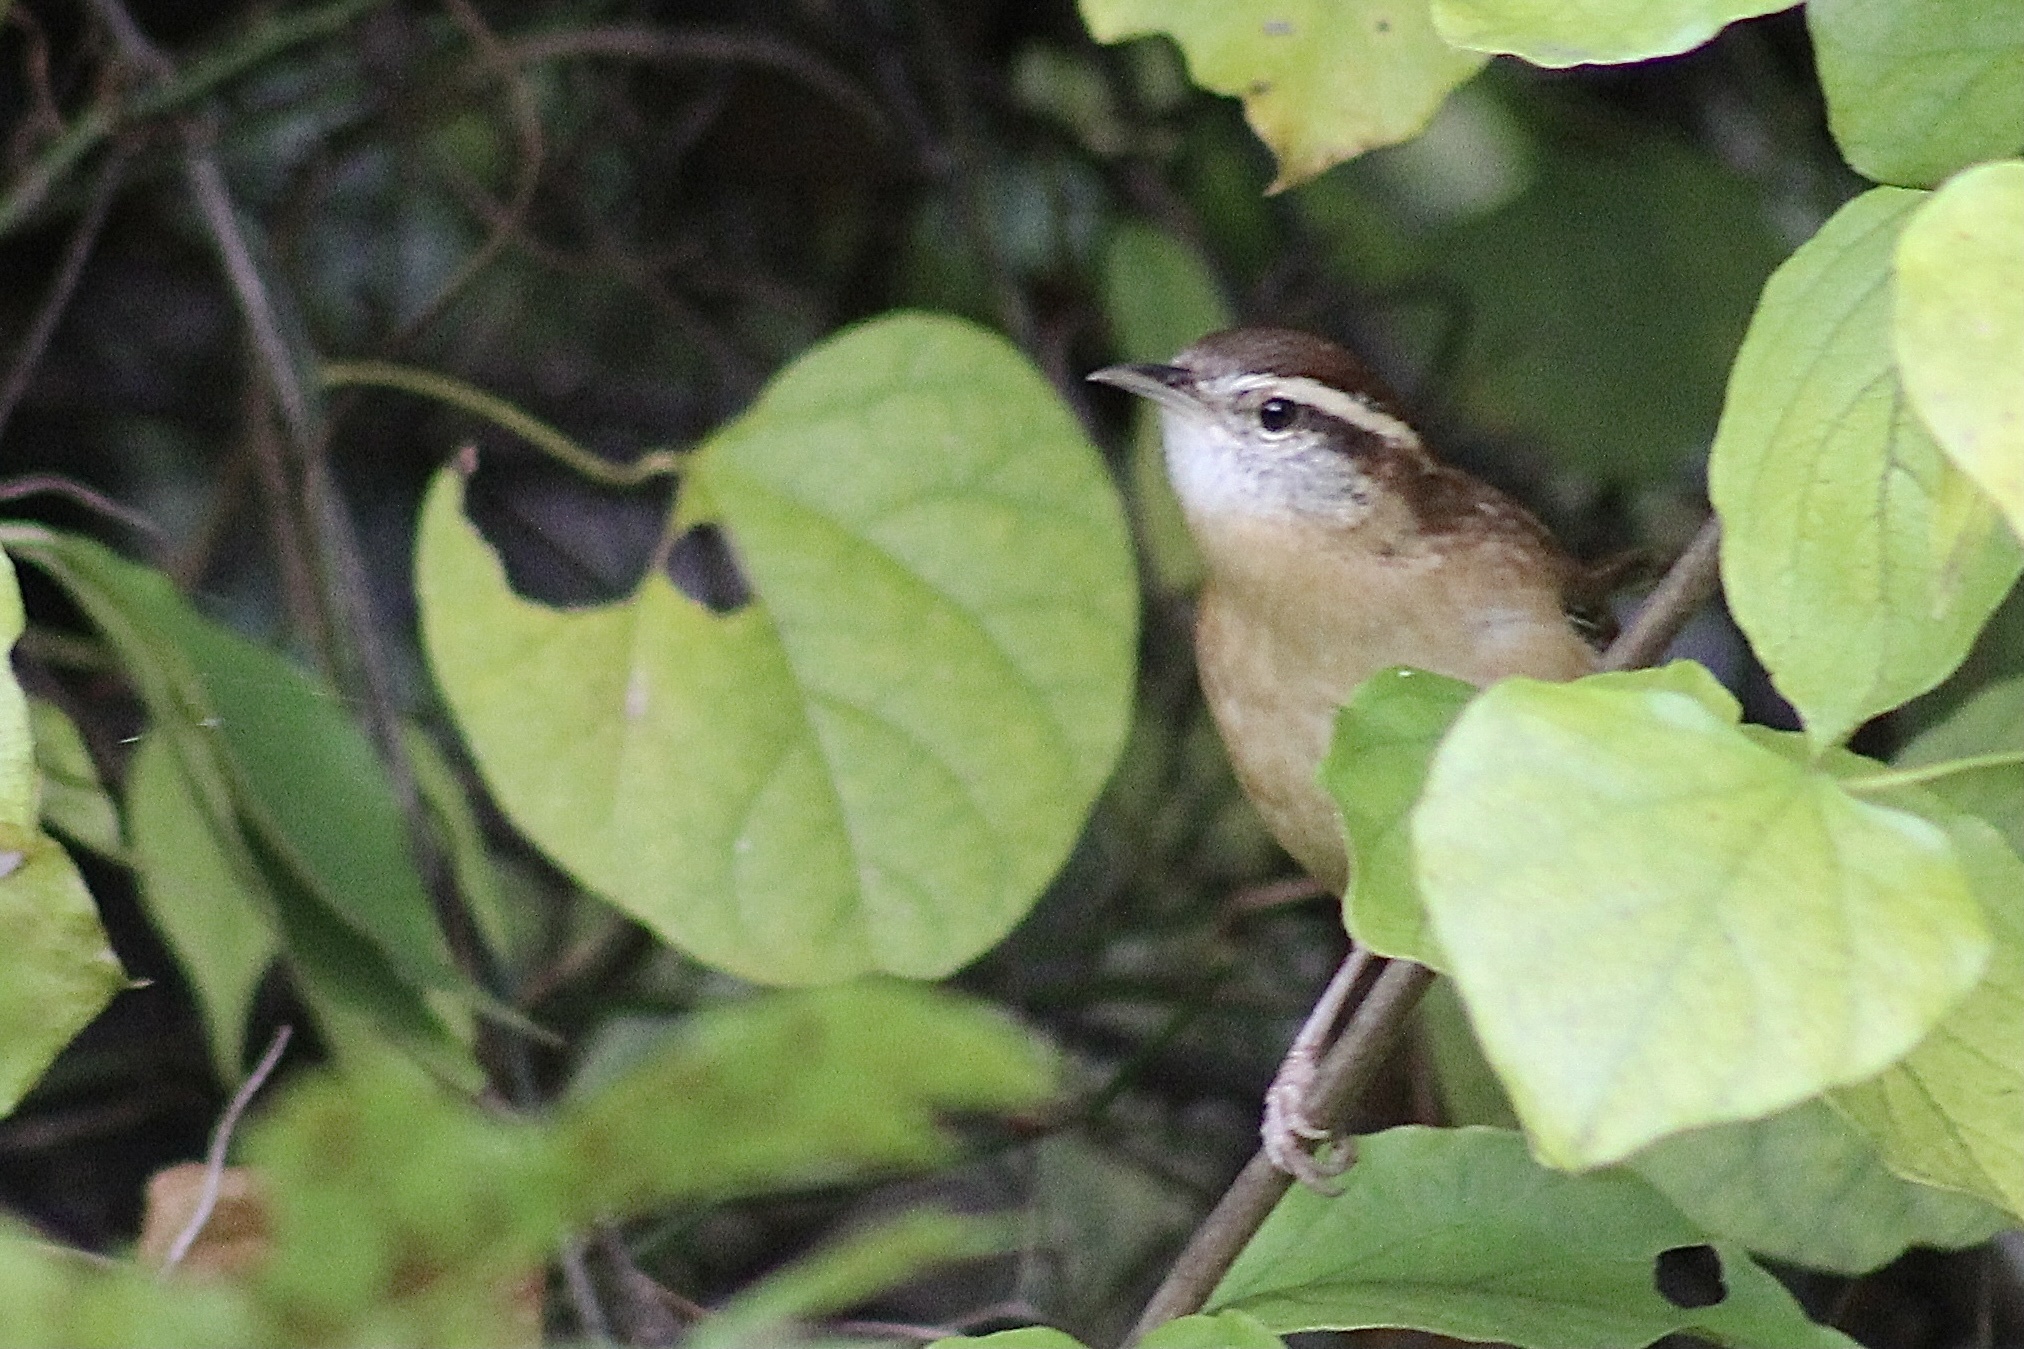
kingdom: Animalia
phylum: Chordata
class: Aves
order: Passeriformes
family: Troglodytidae
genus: Thryothorus
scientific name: Thryothorus ludovicianus
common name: Carolina wren
